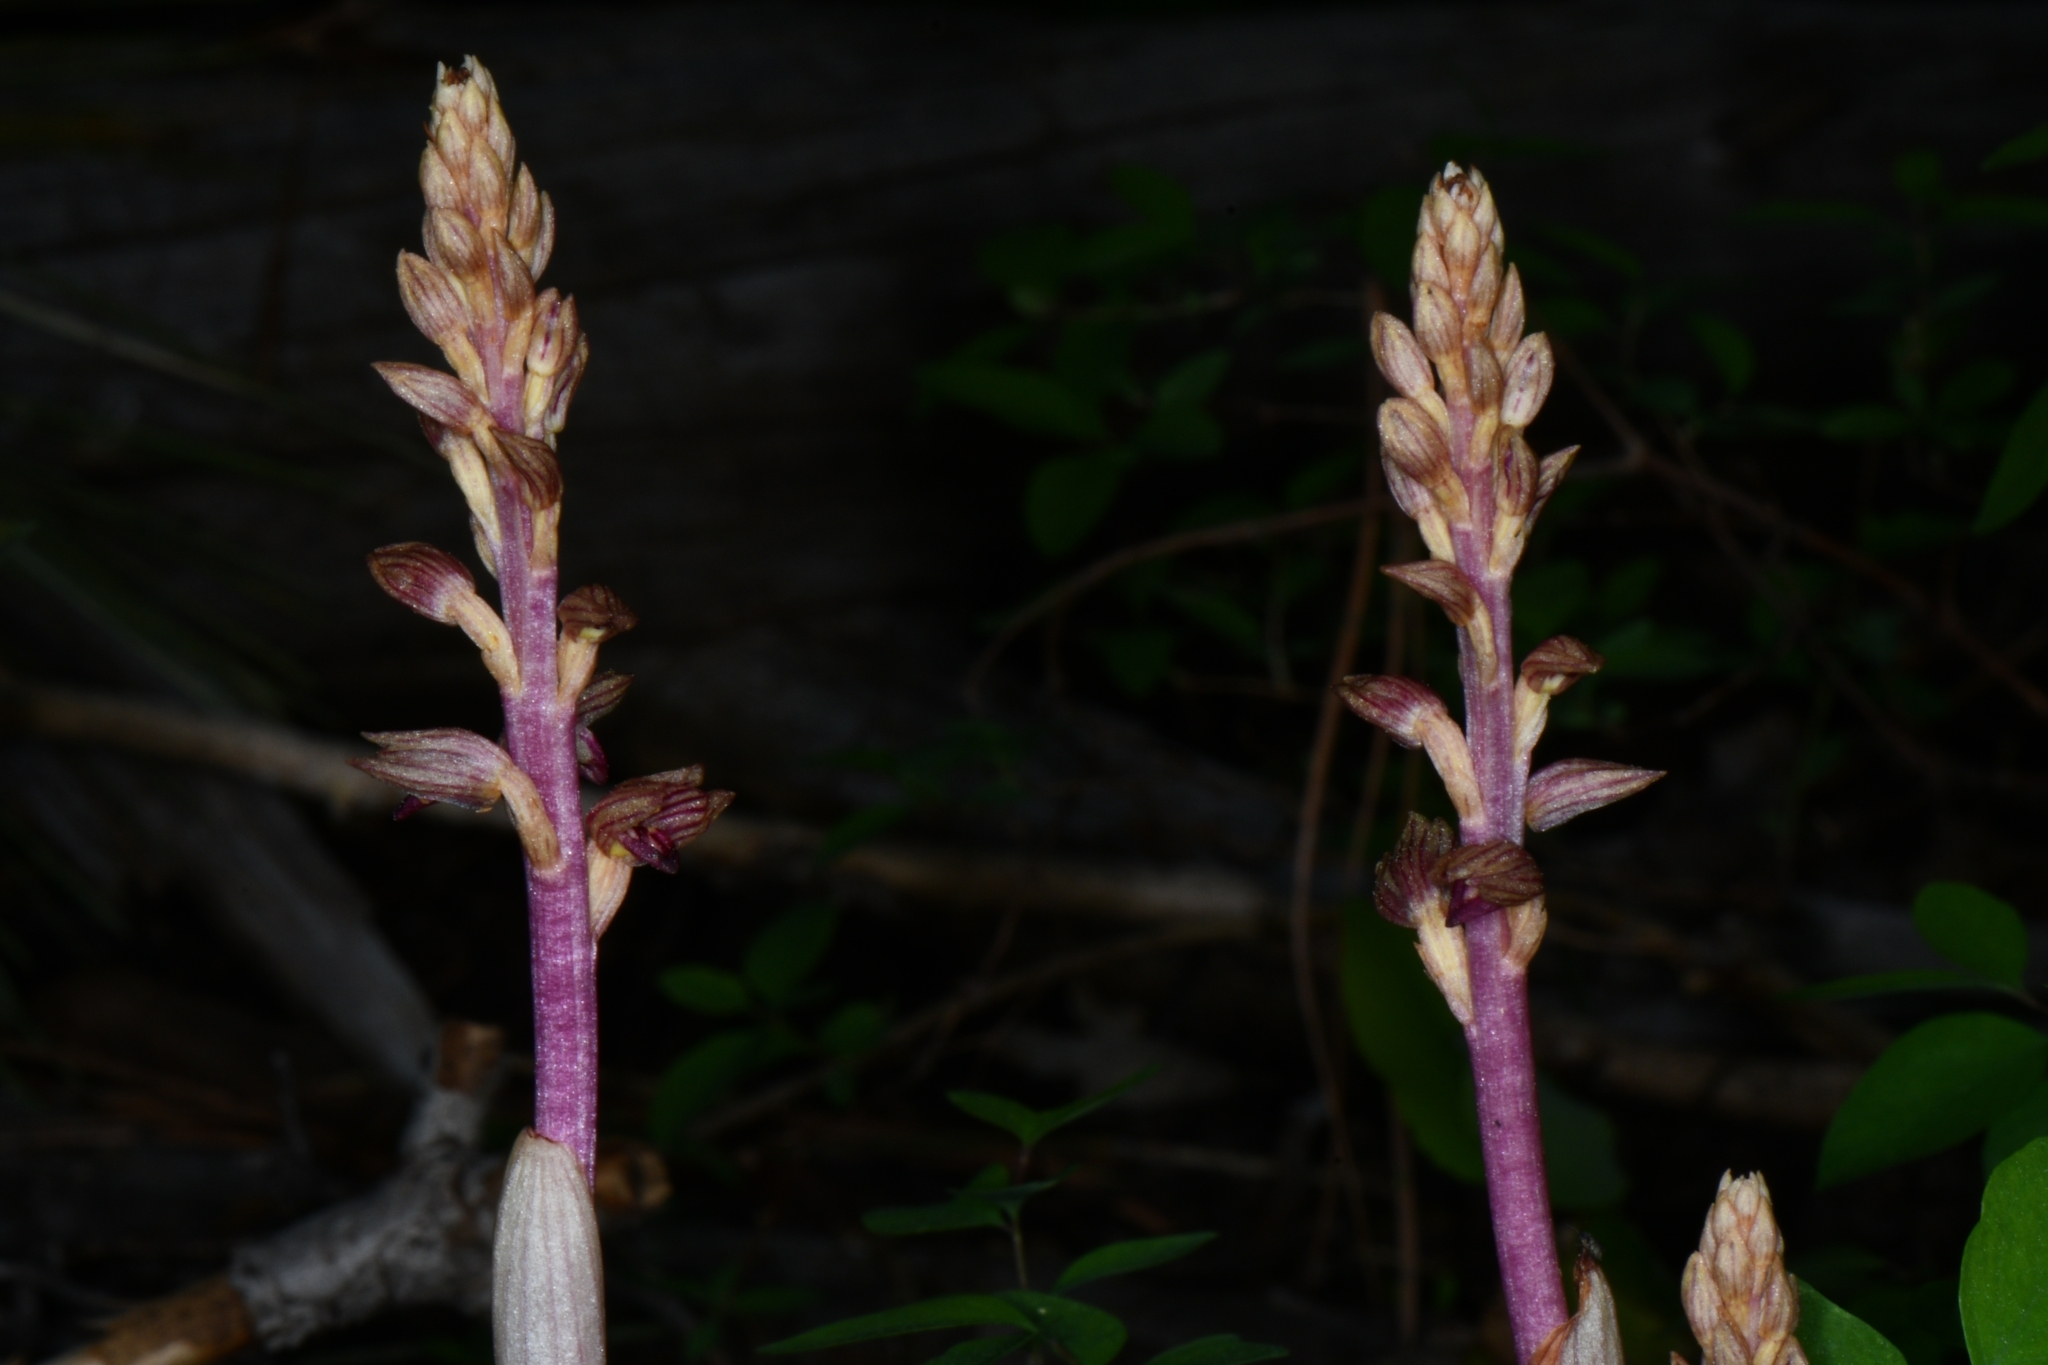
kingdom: Plantae
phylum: Tracheophyta
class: Liliopsida
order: Asparagales
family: Orchidaceae
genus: Corallorhiza
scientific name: Corallorhiza striata
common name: Hooded coralroot
